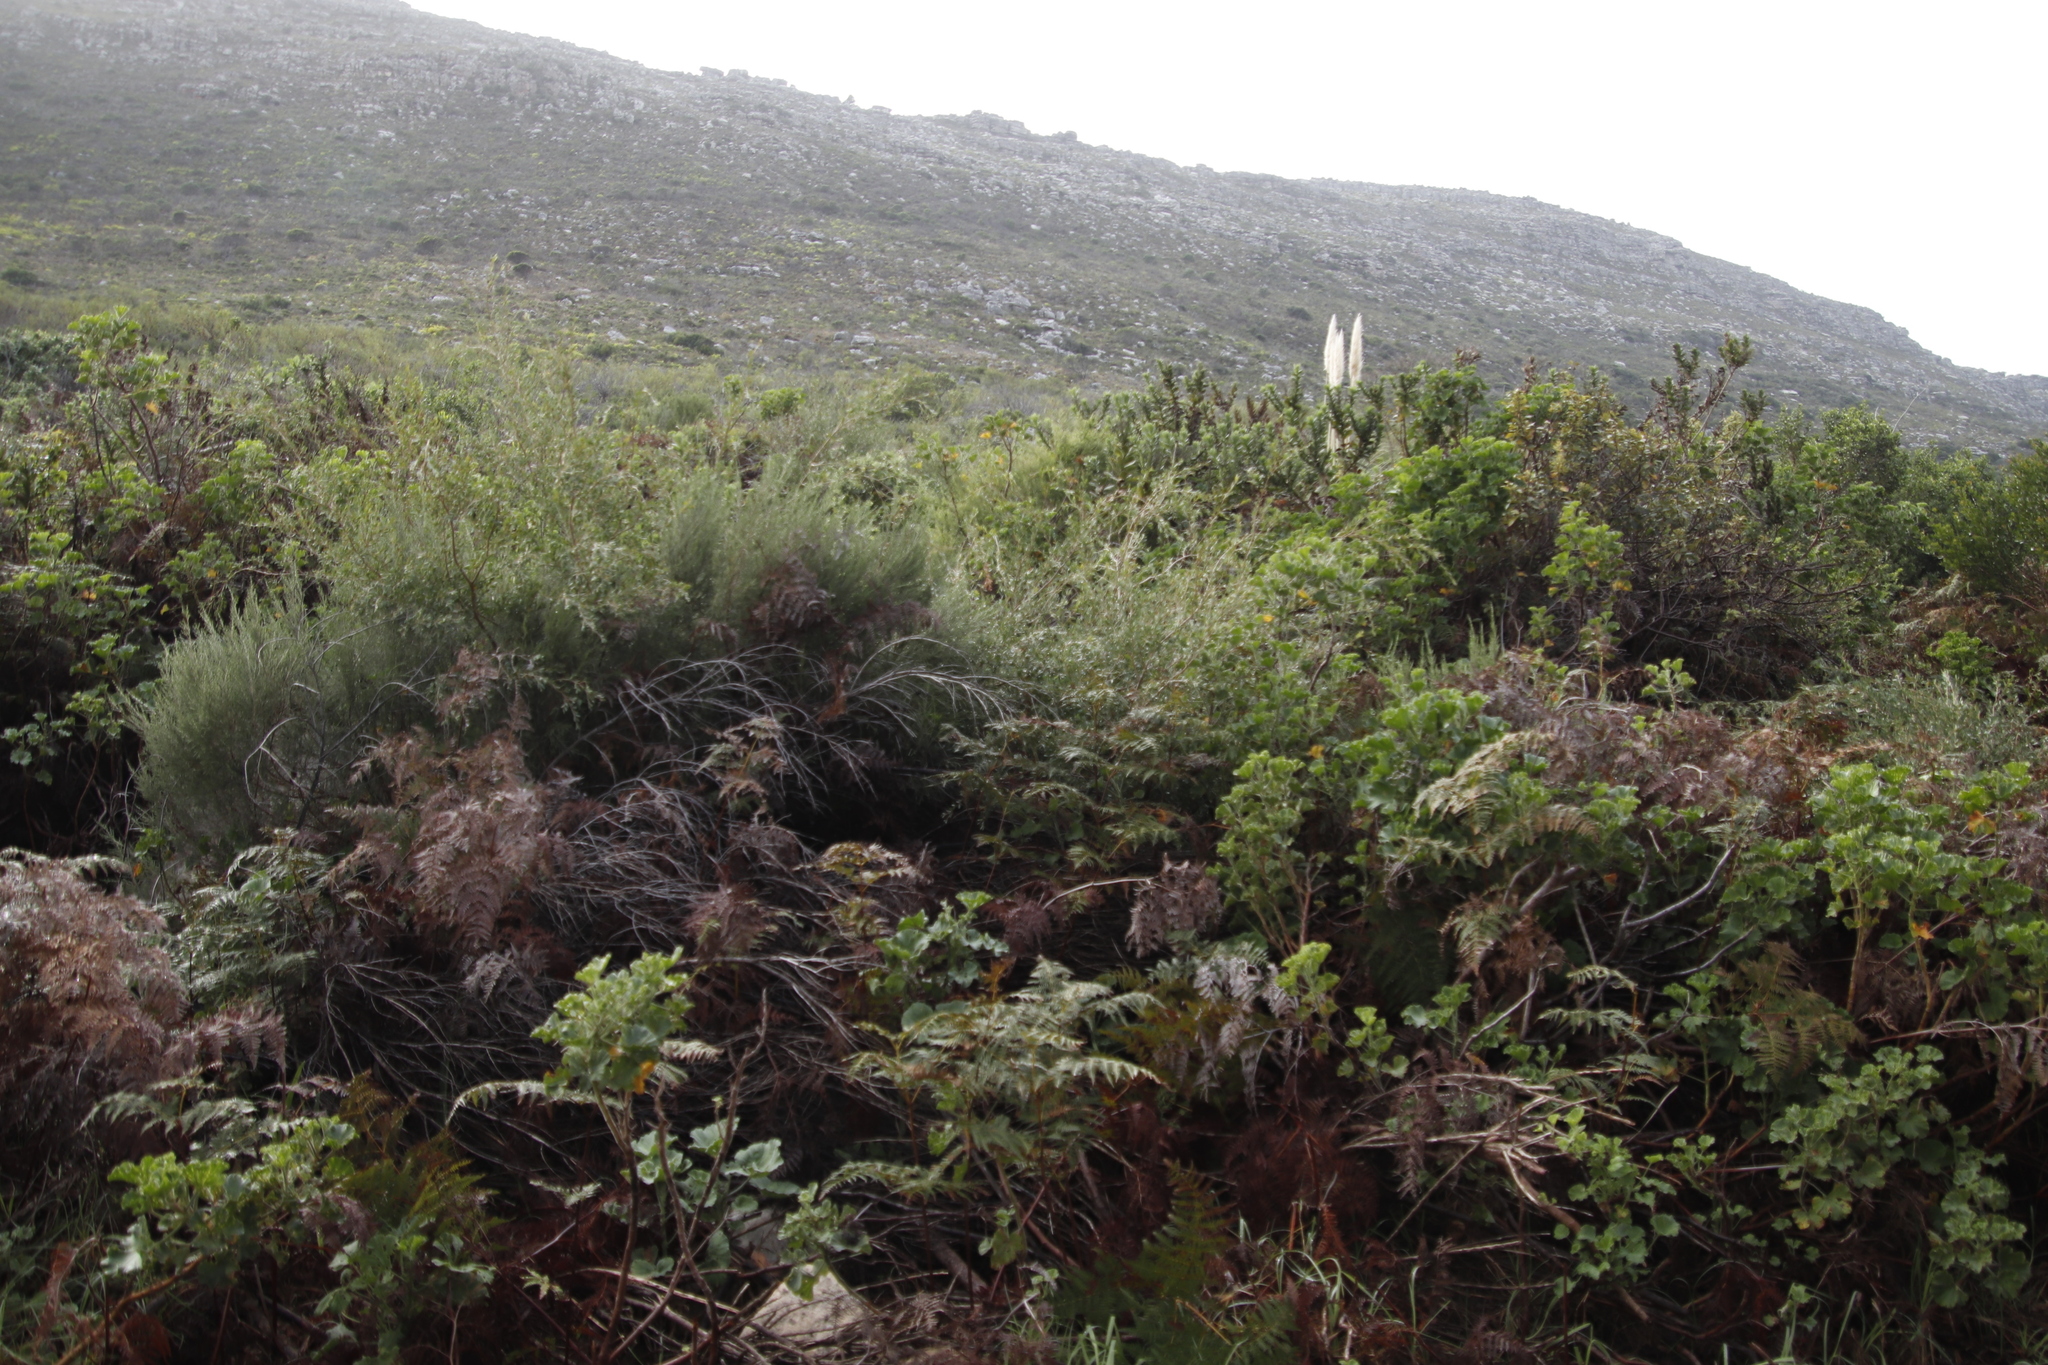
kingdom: Plantae
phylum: Tracheophyta
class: Magnoliopsida
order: Myrtales
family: Myrtaceae
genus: Leptospermum
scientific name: Leptospermum laevigatum
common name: Australian teatree
